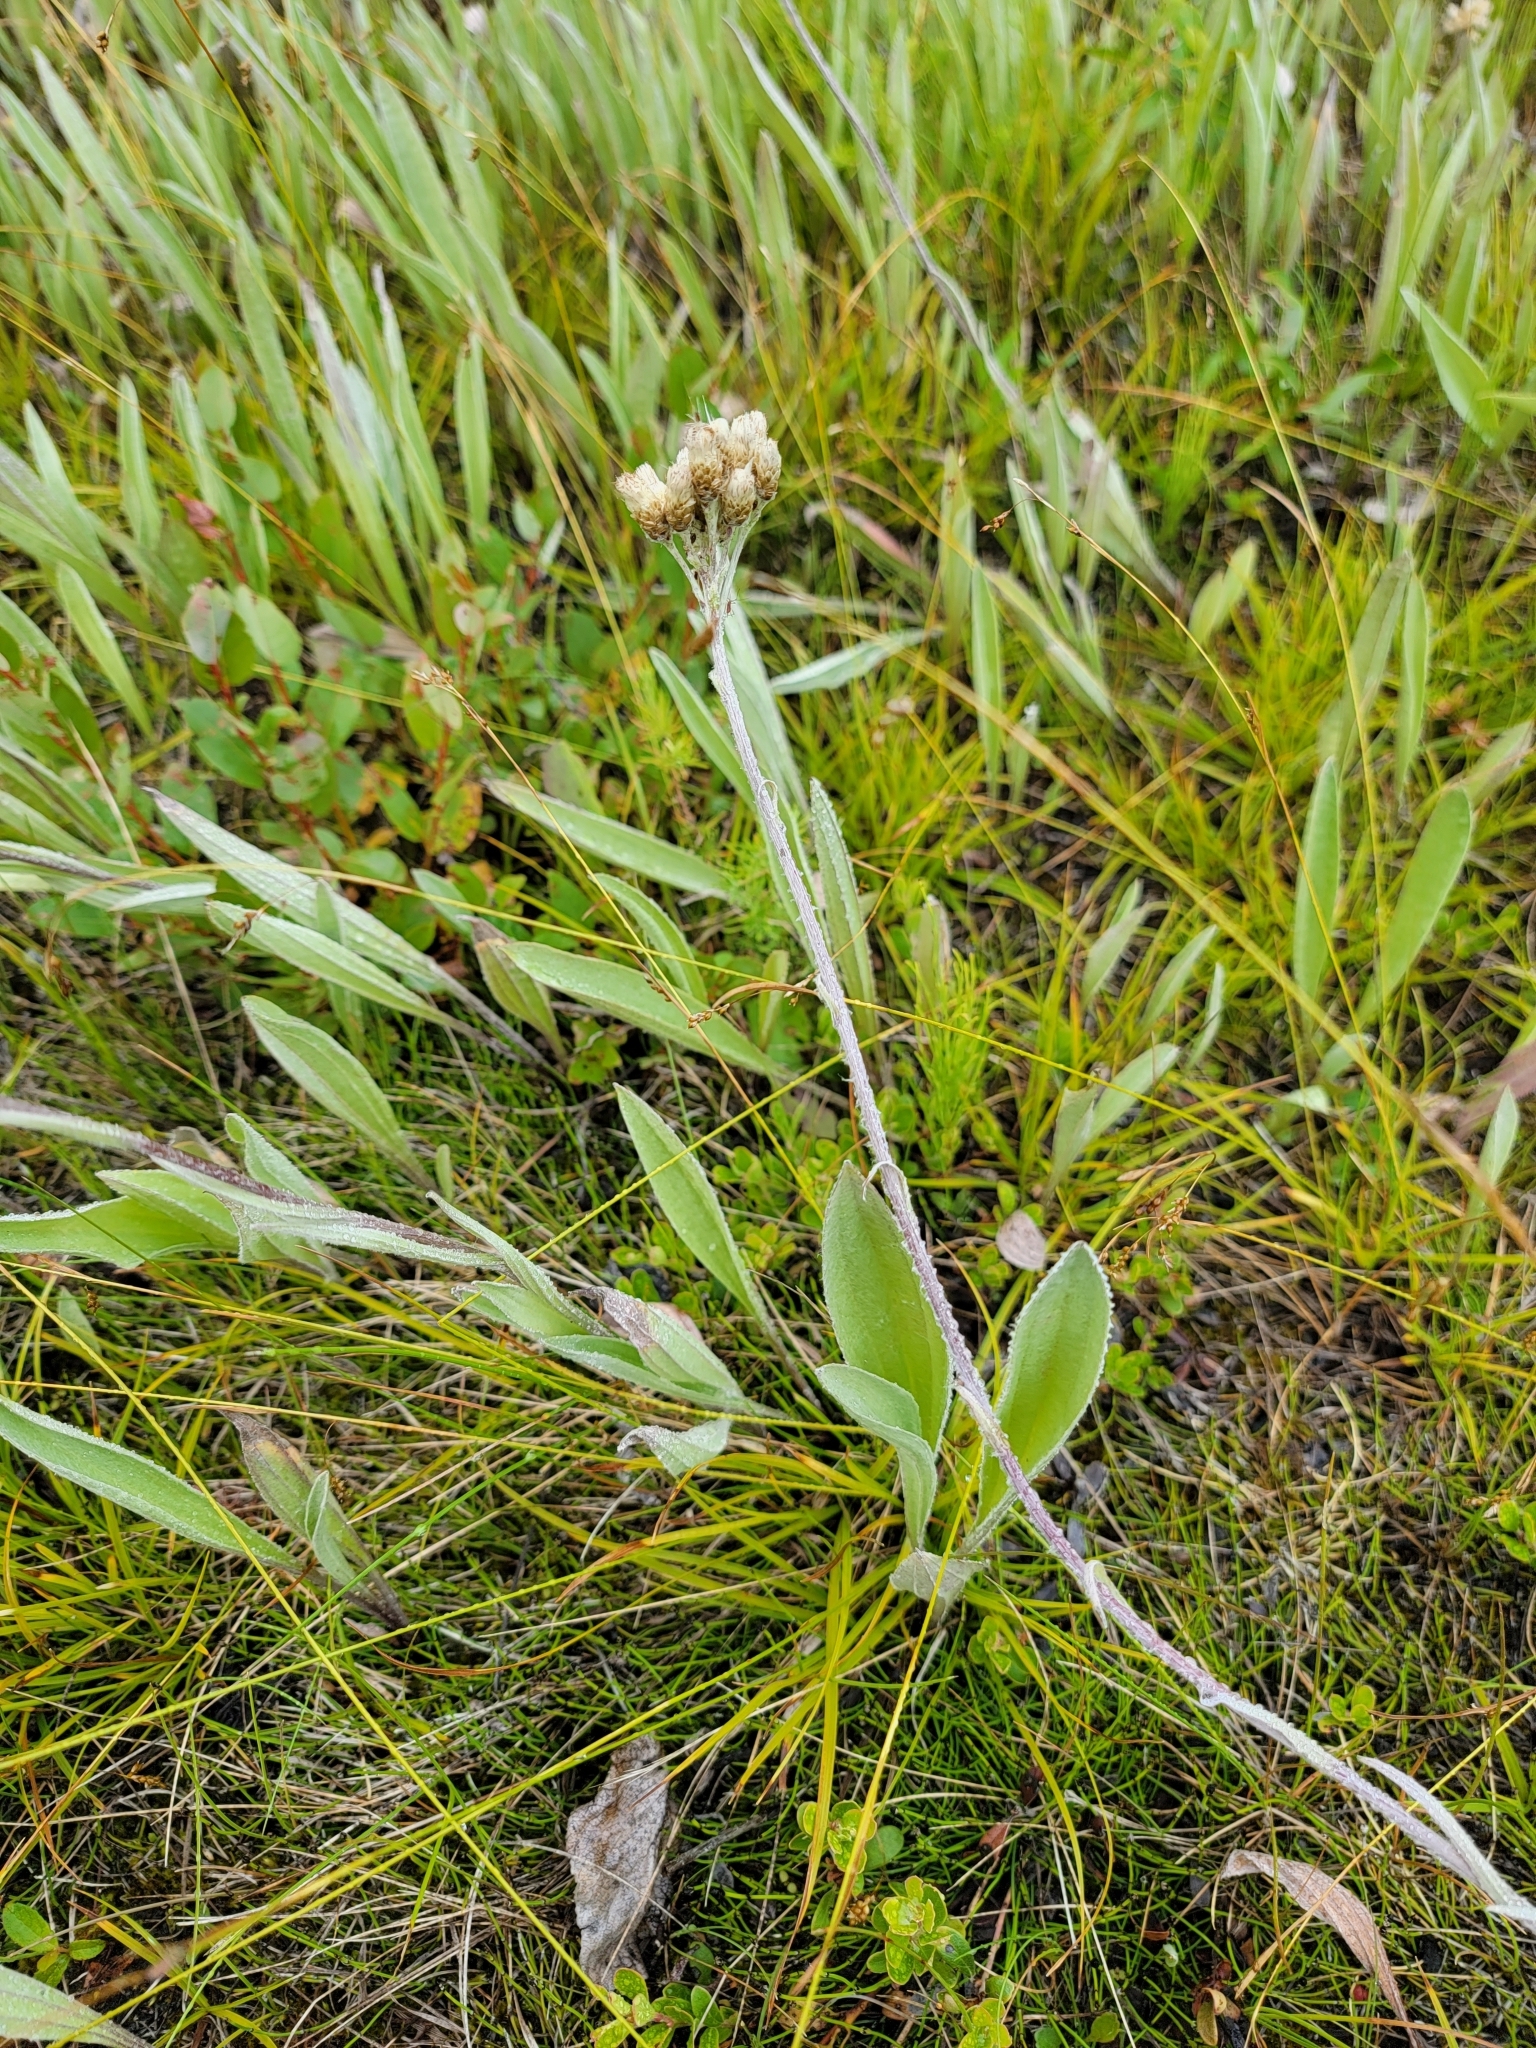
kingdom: Plantae
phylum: Tracheophyta
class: Magnoliopsida
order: Asterales
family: Asteraceae
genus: Antennaria
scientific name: Antennaria pulcherrima
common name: Handsome pussytoes
